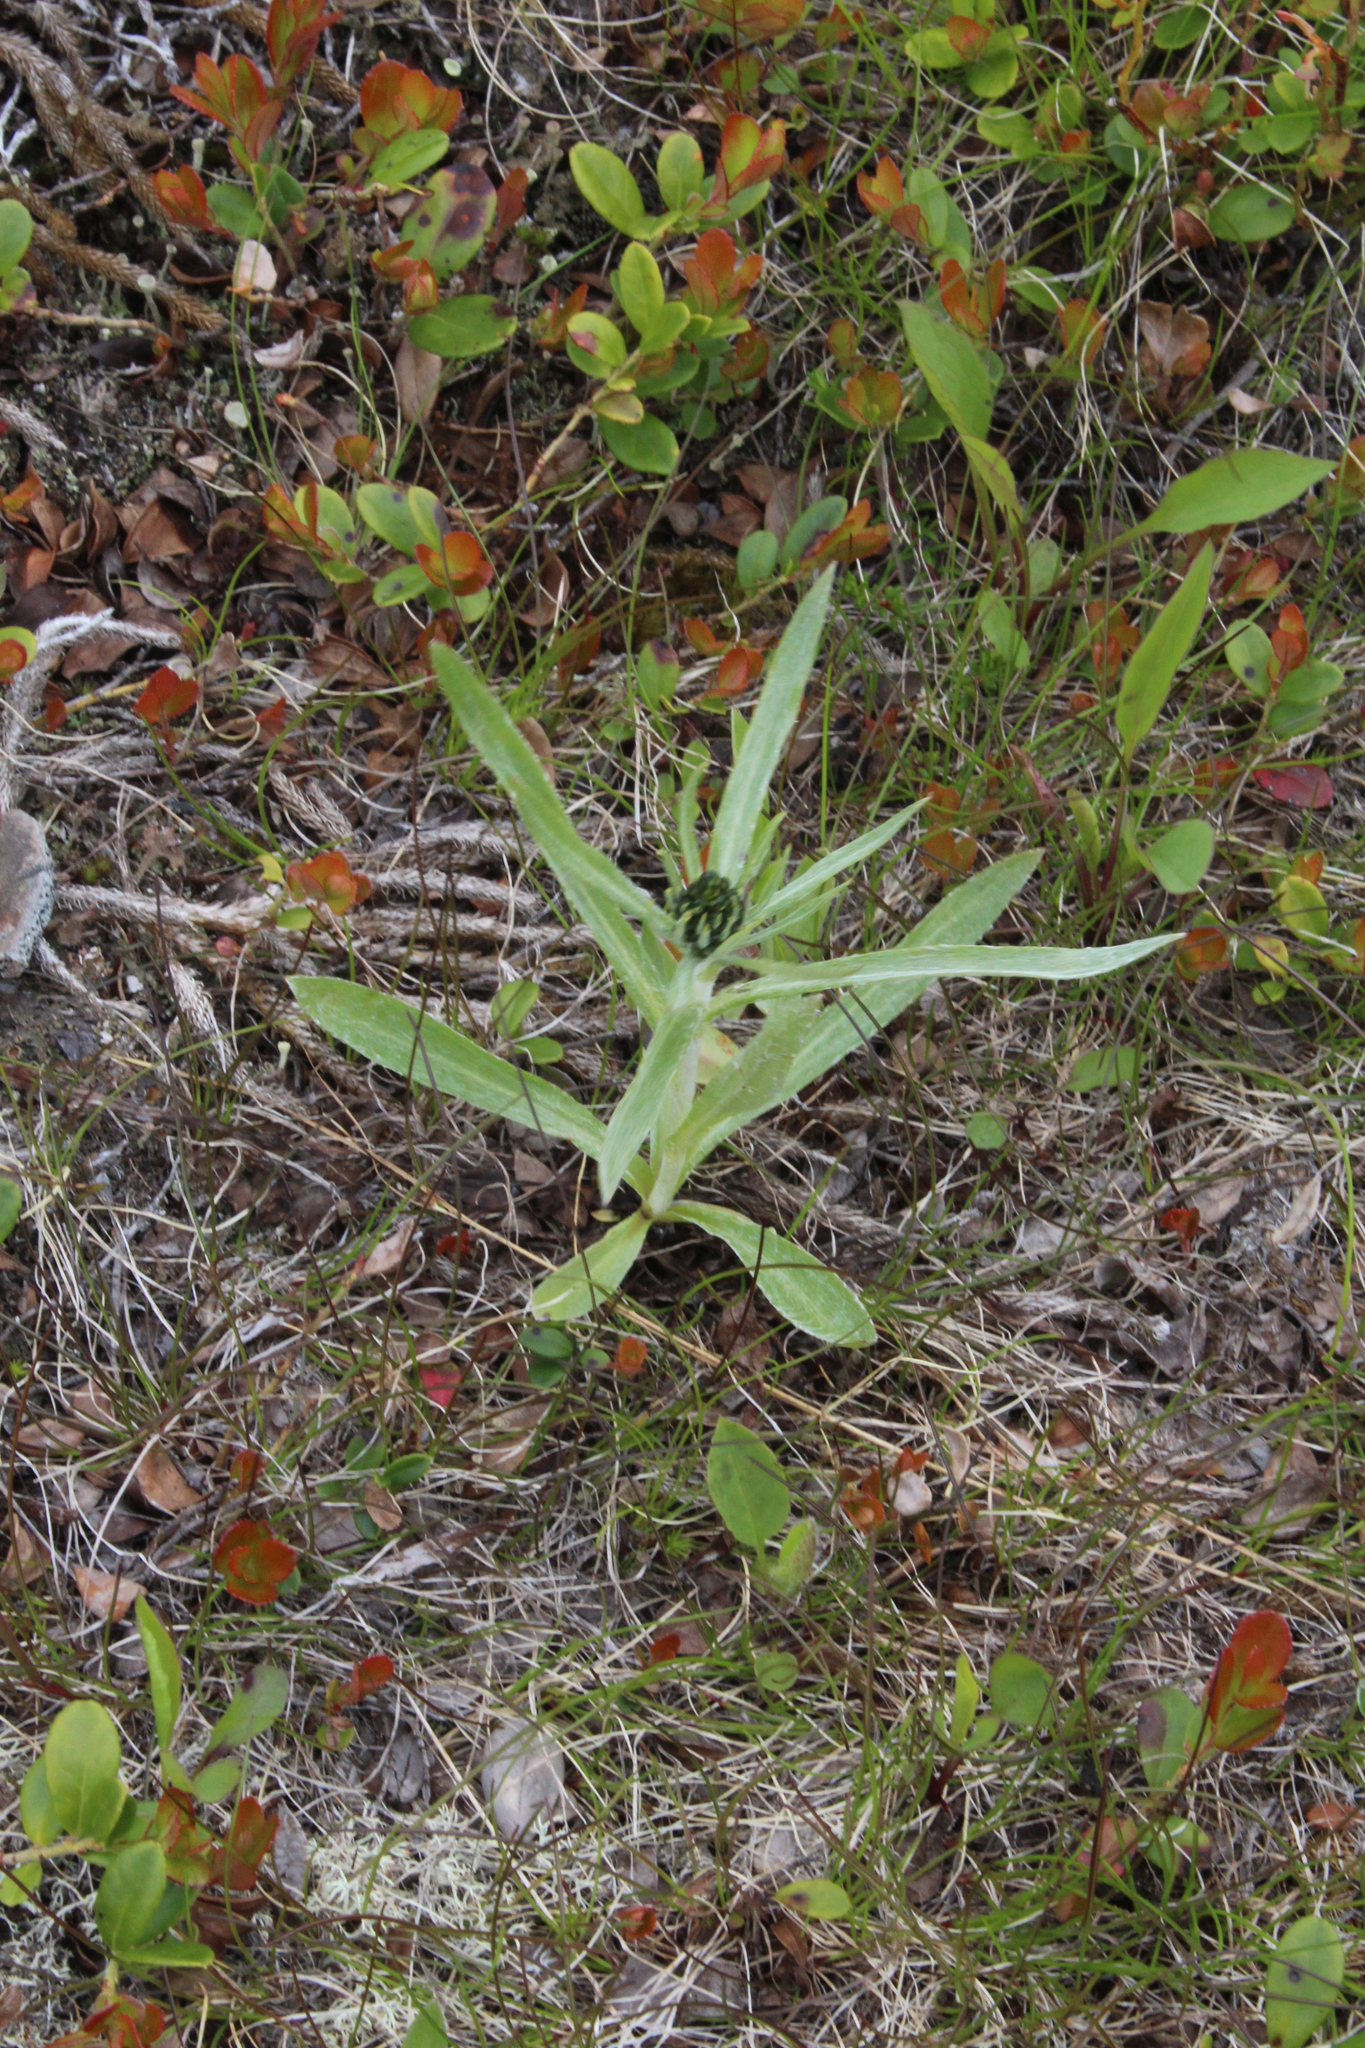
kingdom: Plantae
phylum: Tracheophyta
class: Magnoliopsida
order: Asterales
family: Asteraceae
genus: Omalotheca
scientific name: Omalotheca norvegica
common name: Norwegian arctic-cudweed
